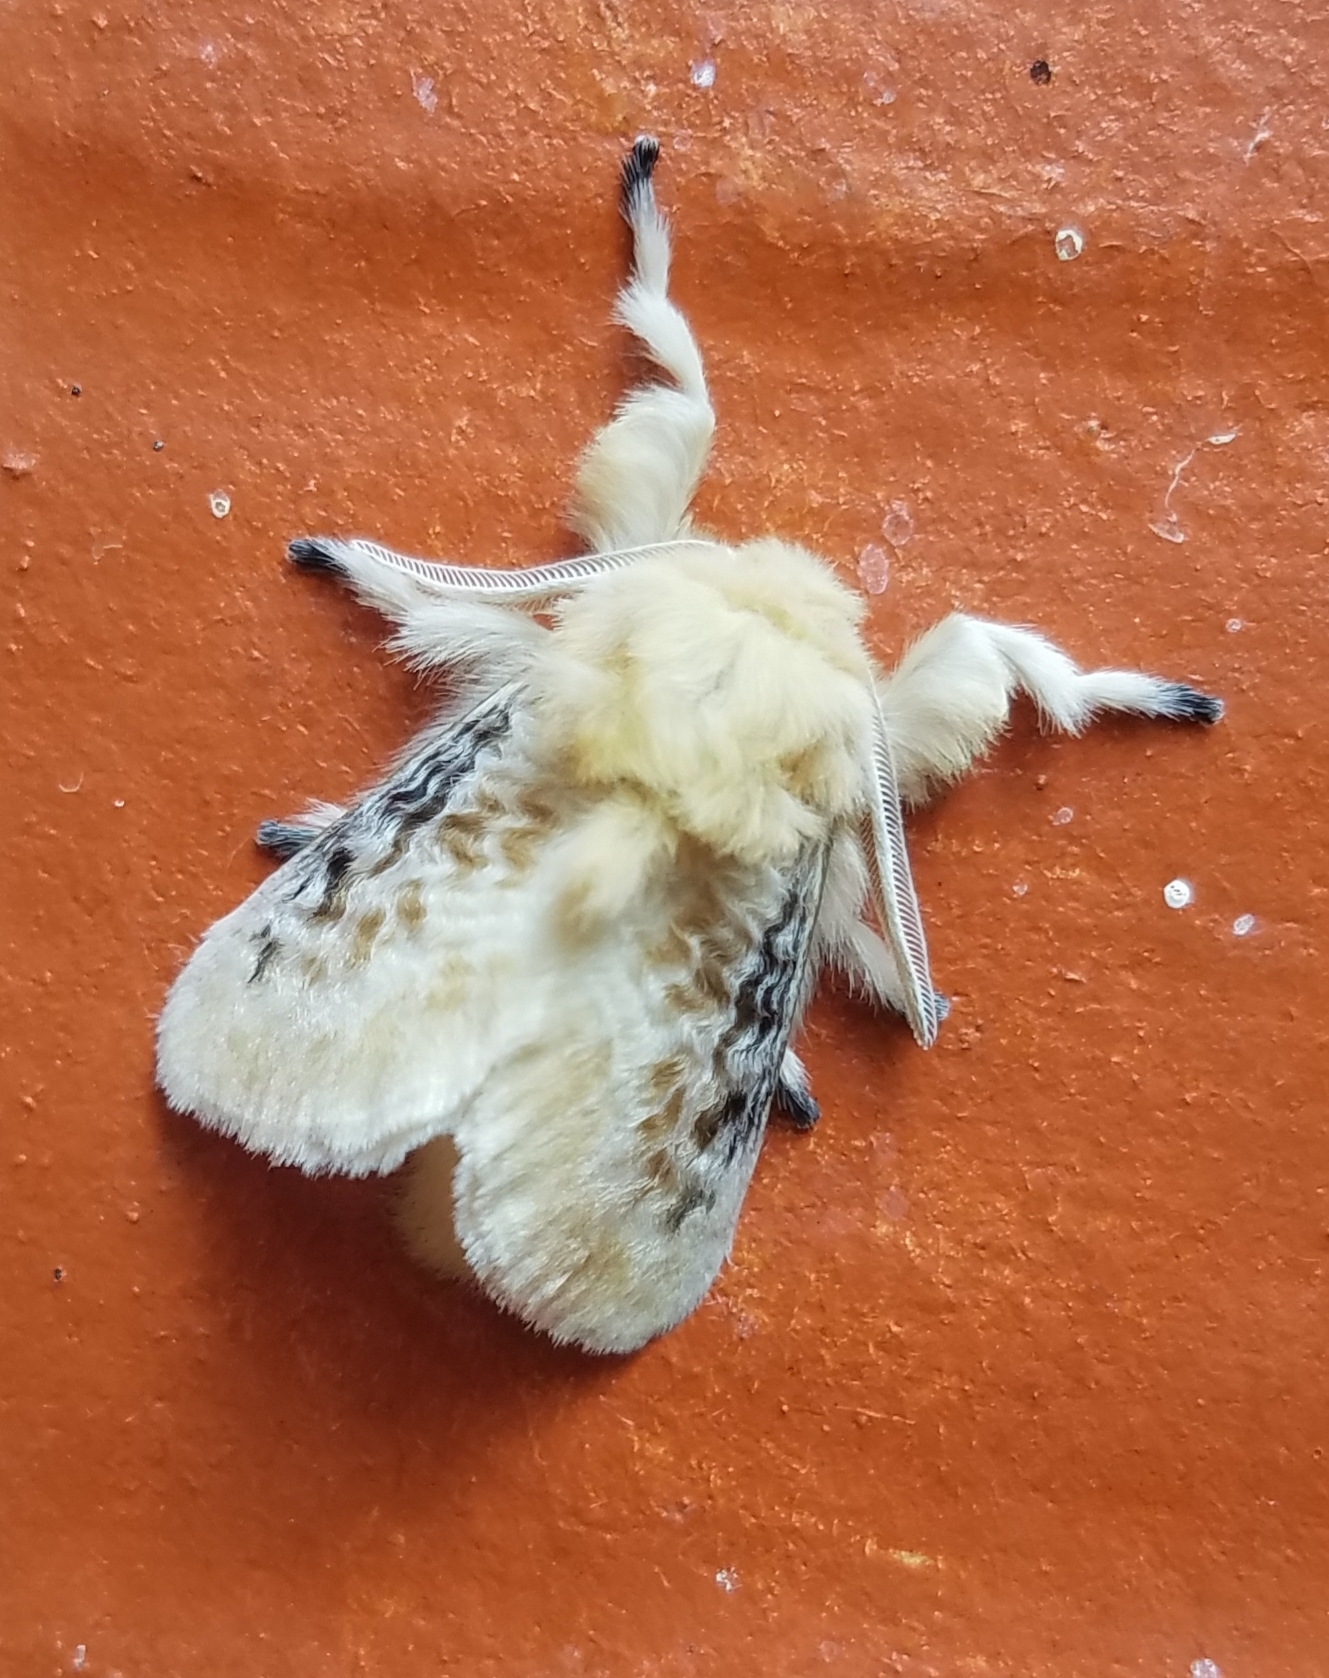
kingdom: Animalia
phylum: Arthropoda
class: Insecta
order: Lepidoptera
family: Megalopygidae
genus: Megalopyge
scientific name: Megalopyge crispata
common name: Black-waved flannel moth
